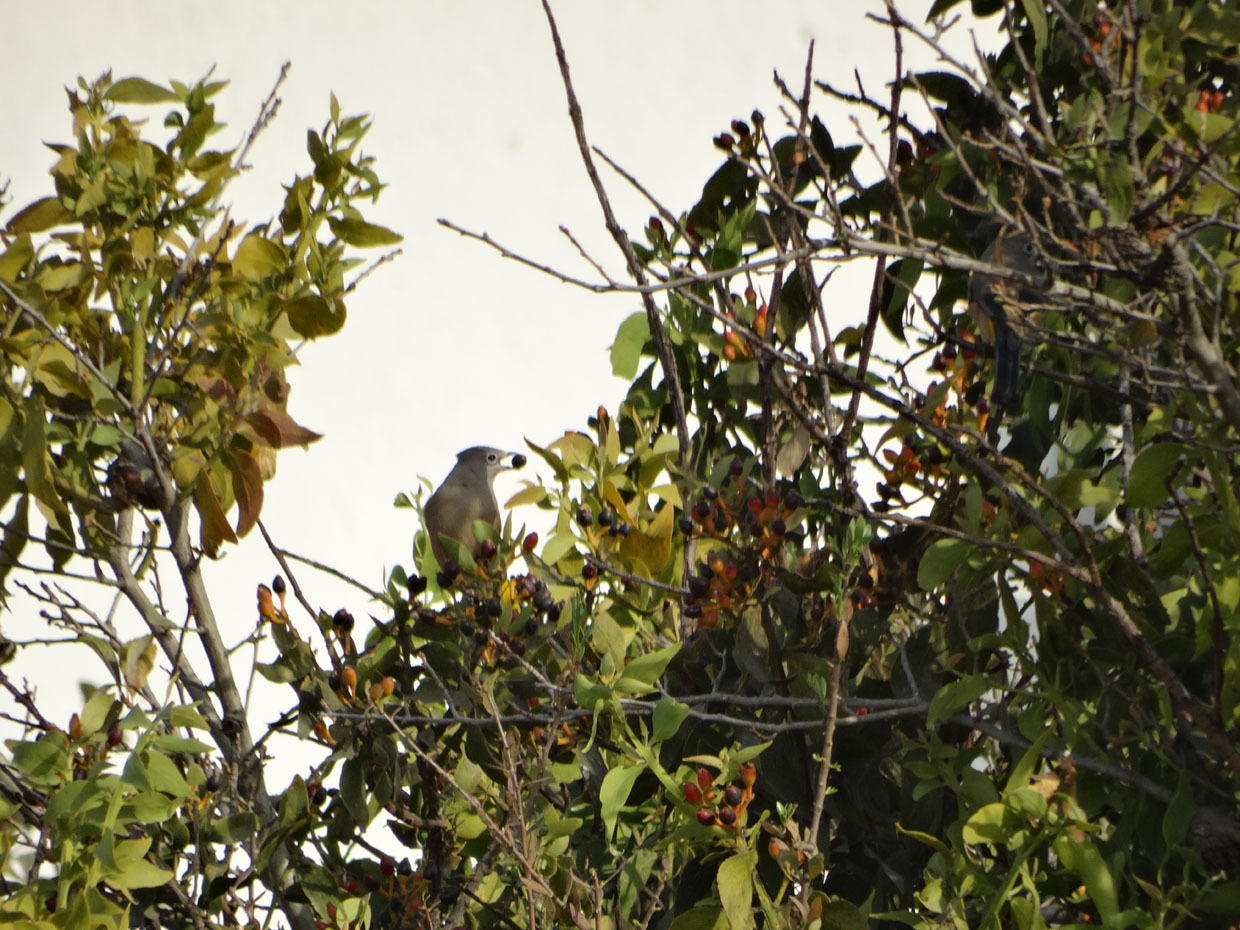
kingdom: Animalia
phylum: Chordata
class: Aves
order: Passeriformes
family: Ptilogonatidae
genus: Ptilogonys
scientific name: Ptilogonys cinereus
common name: Gray silky-flycatcher
